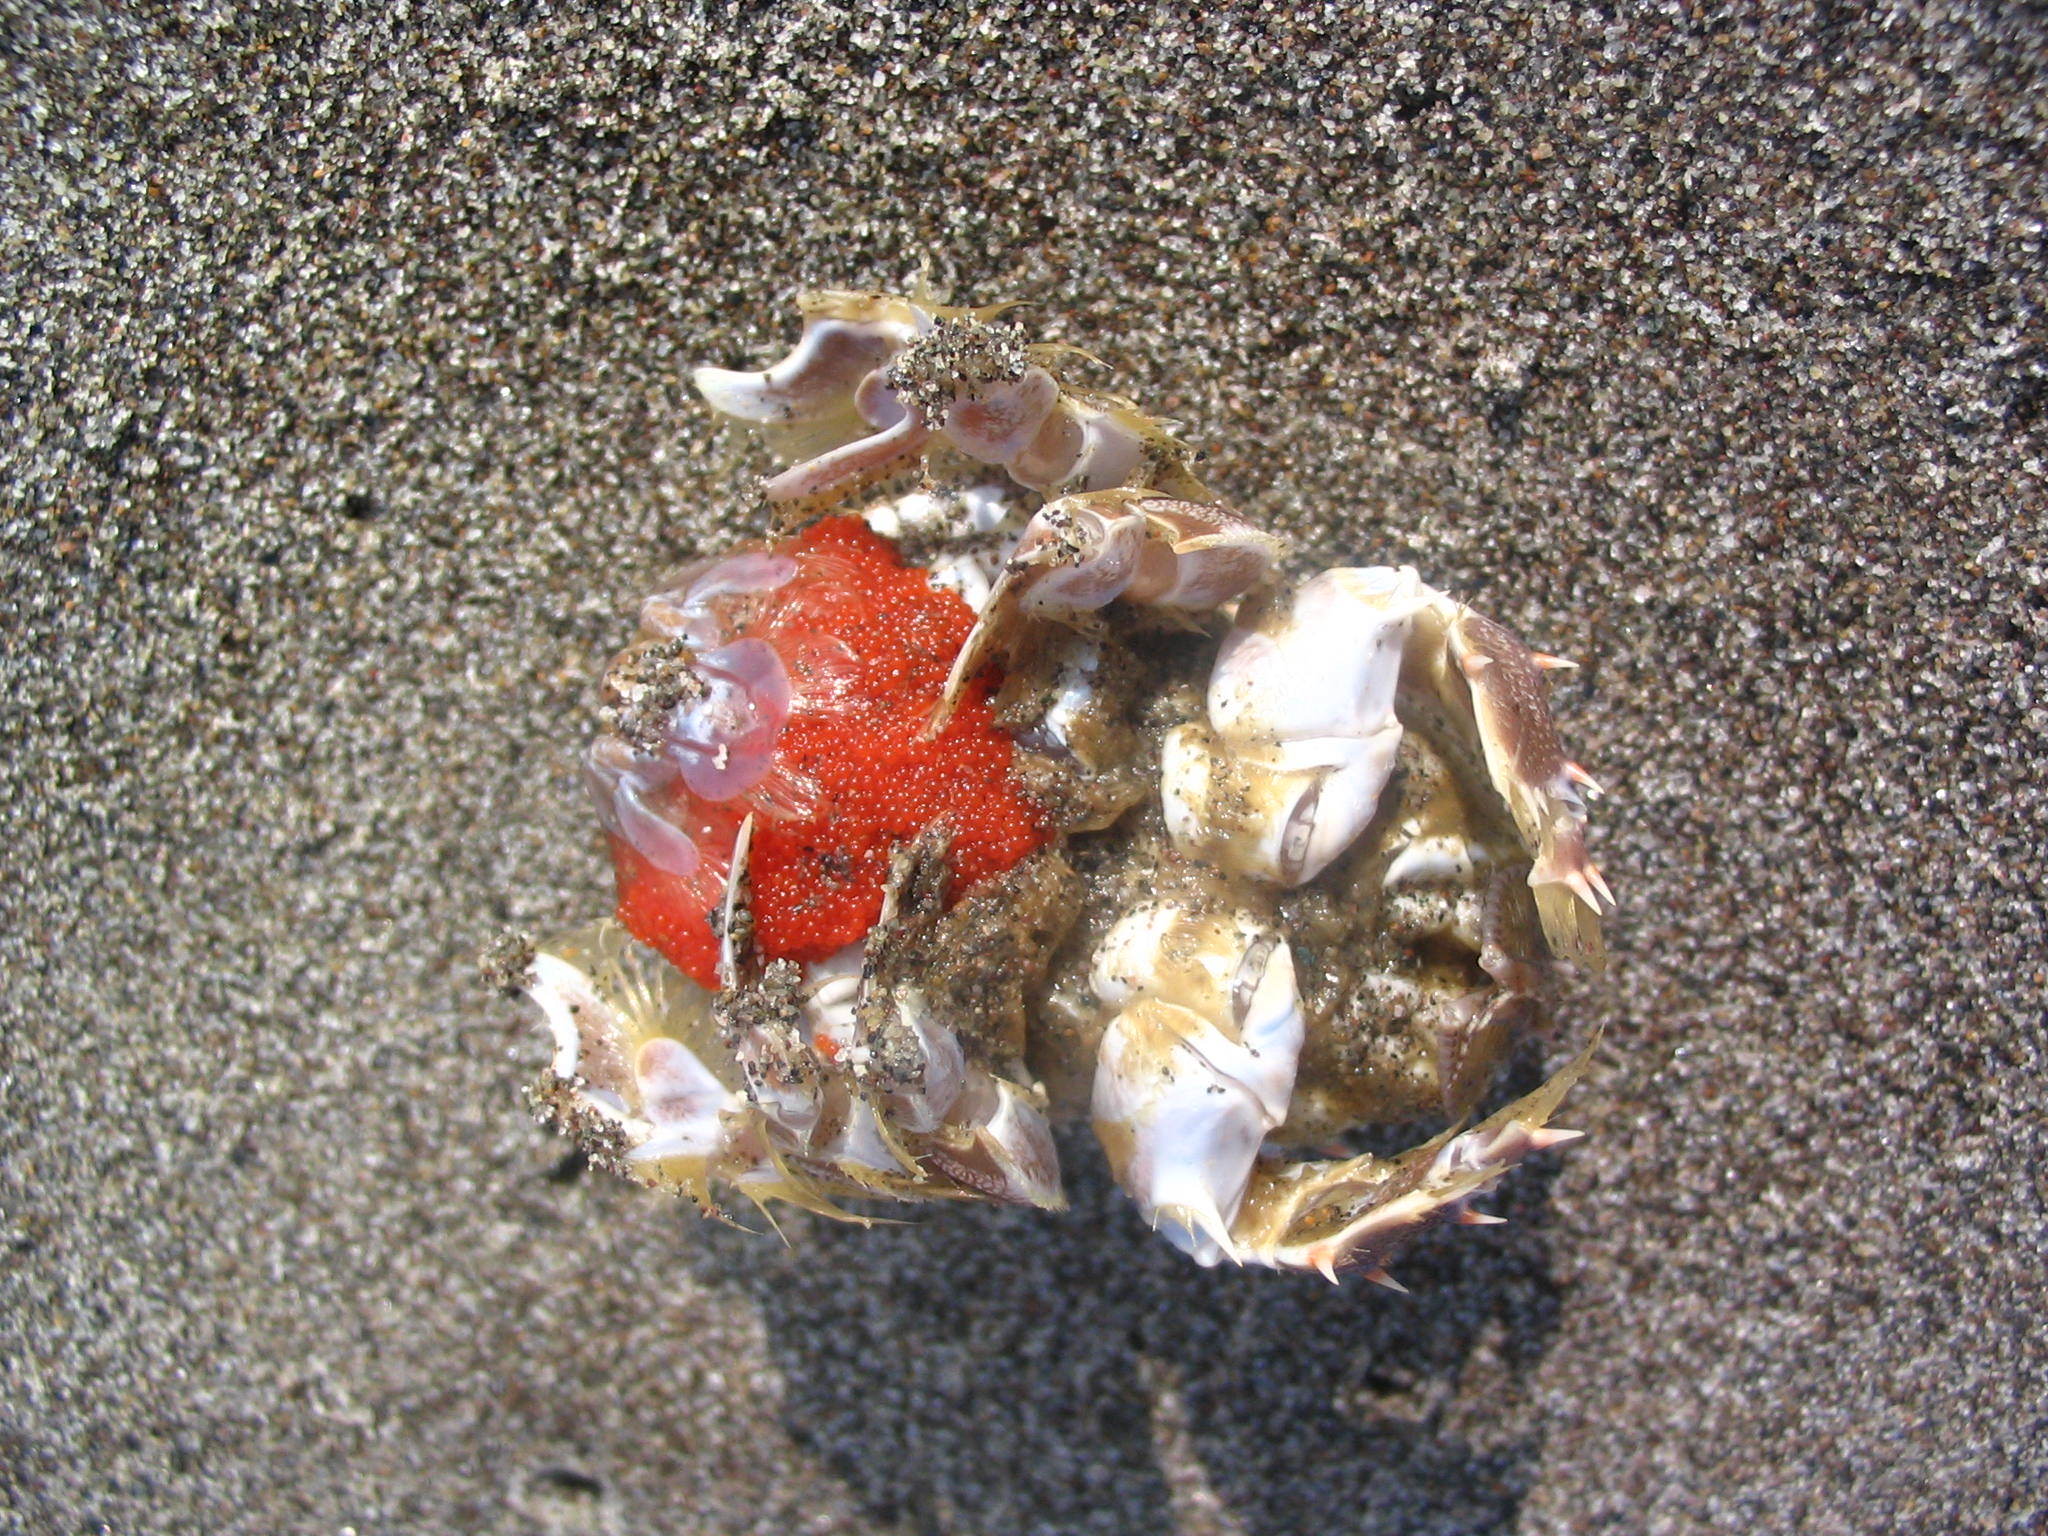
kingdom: Animalia
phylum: Arthropoda
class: Malacostraca
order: Decapoda
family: Blepharipodidae
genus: Blepharipoda
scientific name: Blepharipoda spinosa
